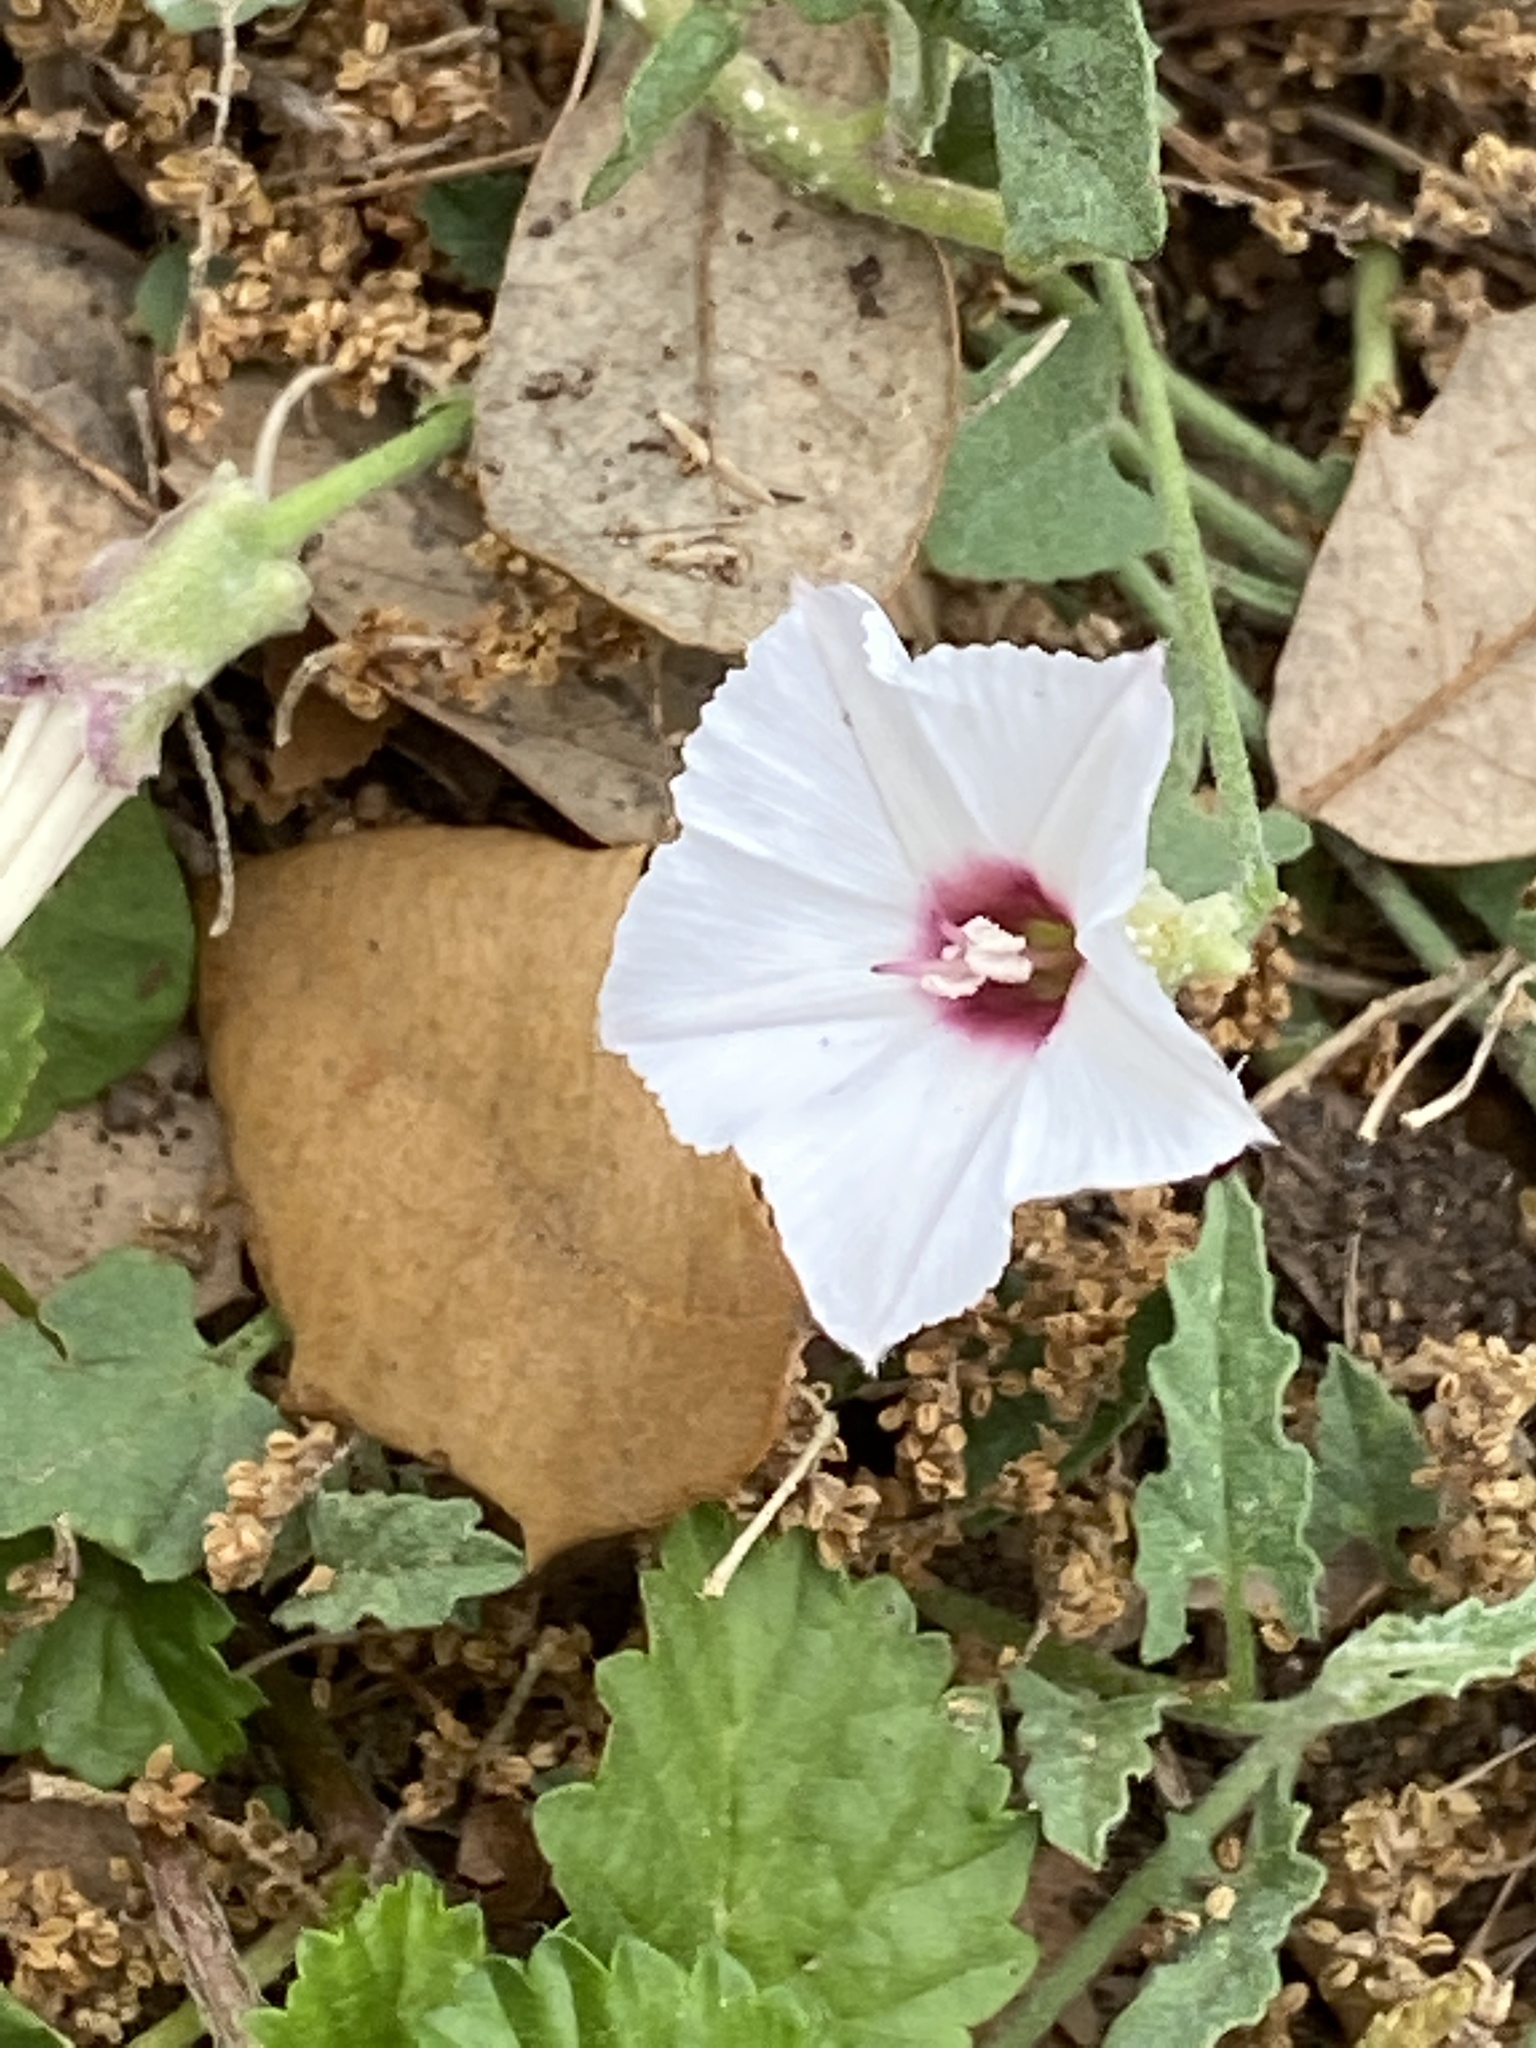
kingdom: Plantae
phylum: Tracheophyta
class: Magnoliopsida
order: Solanales
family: Convolvulaceae
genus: Convolvulus
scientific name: Convolvulus equitans
